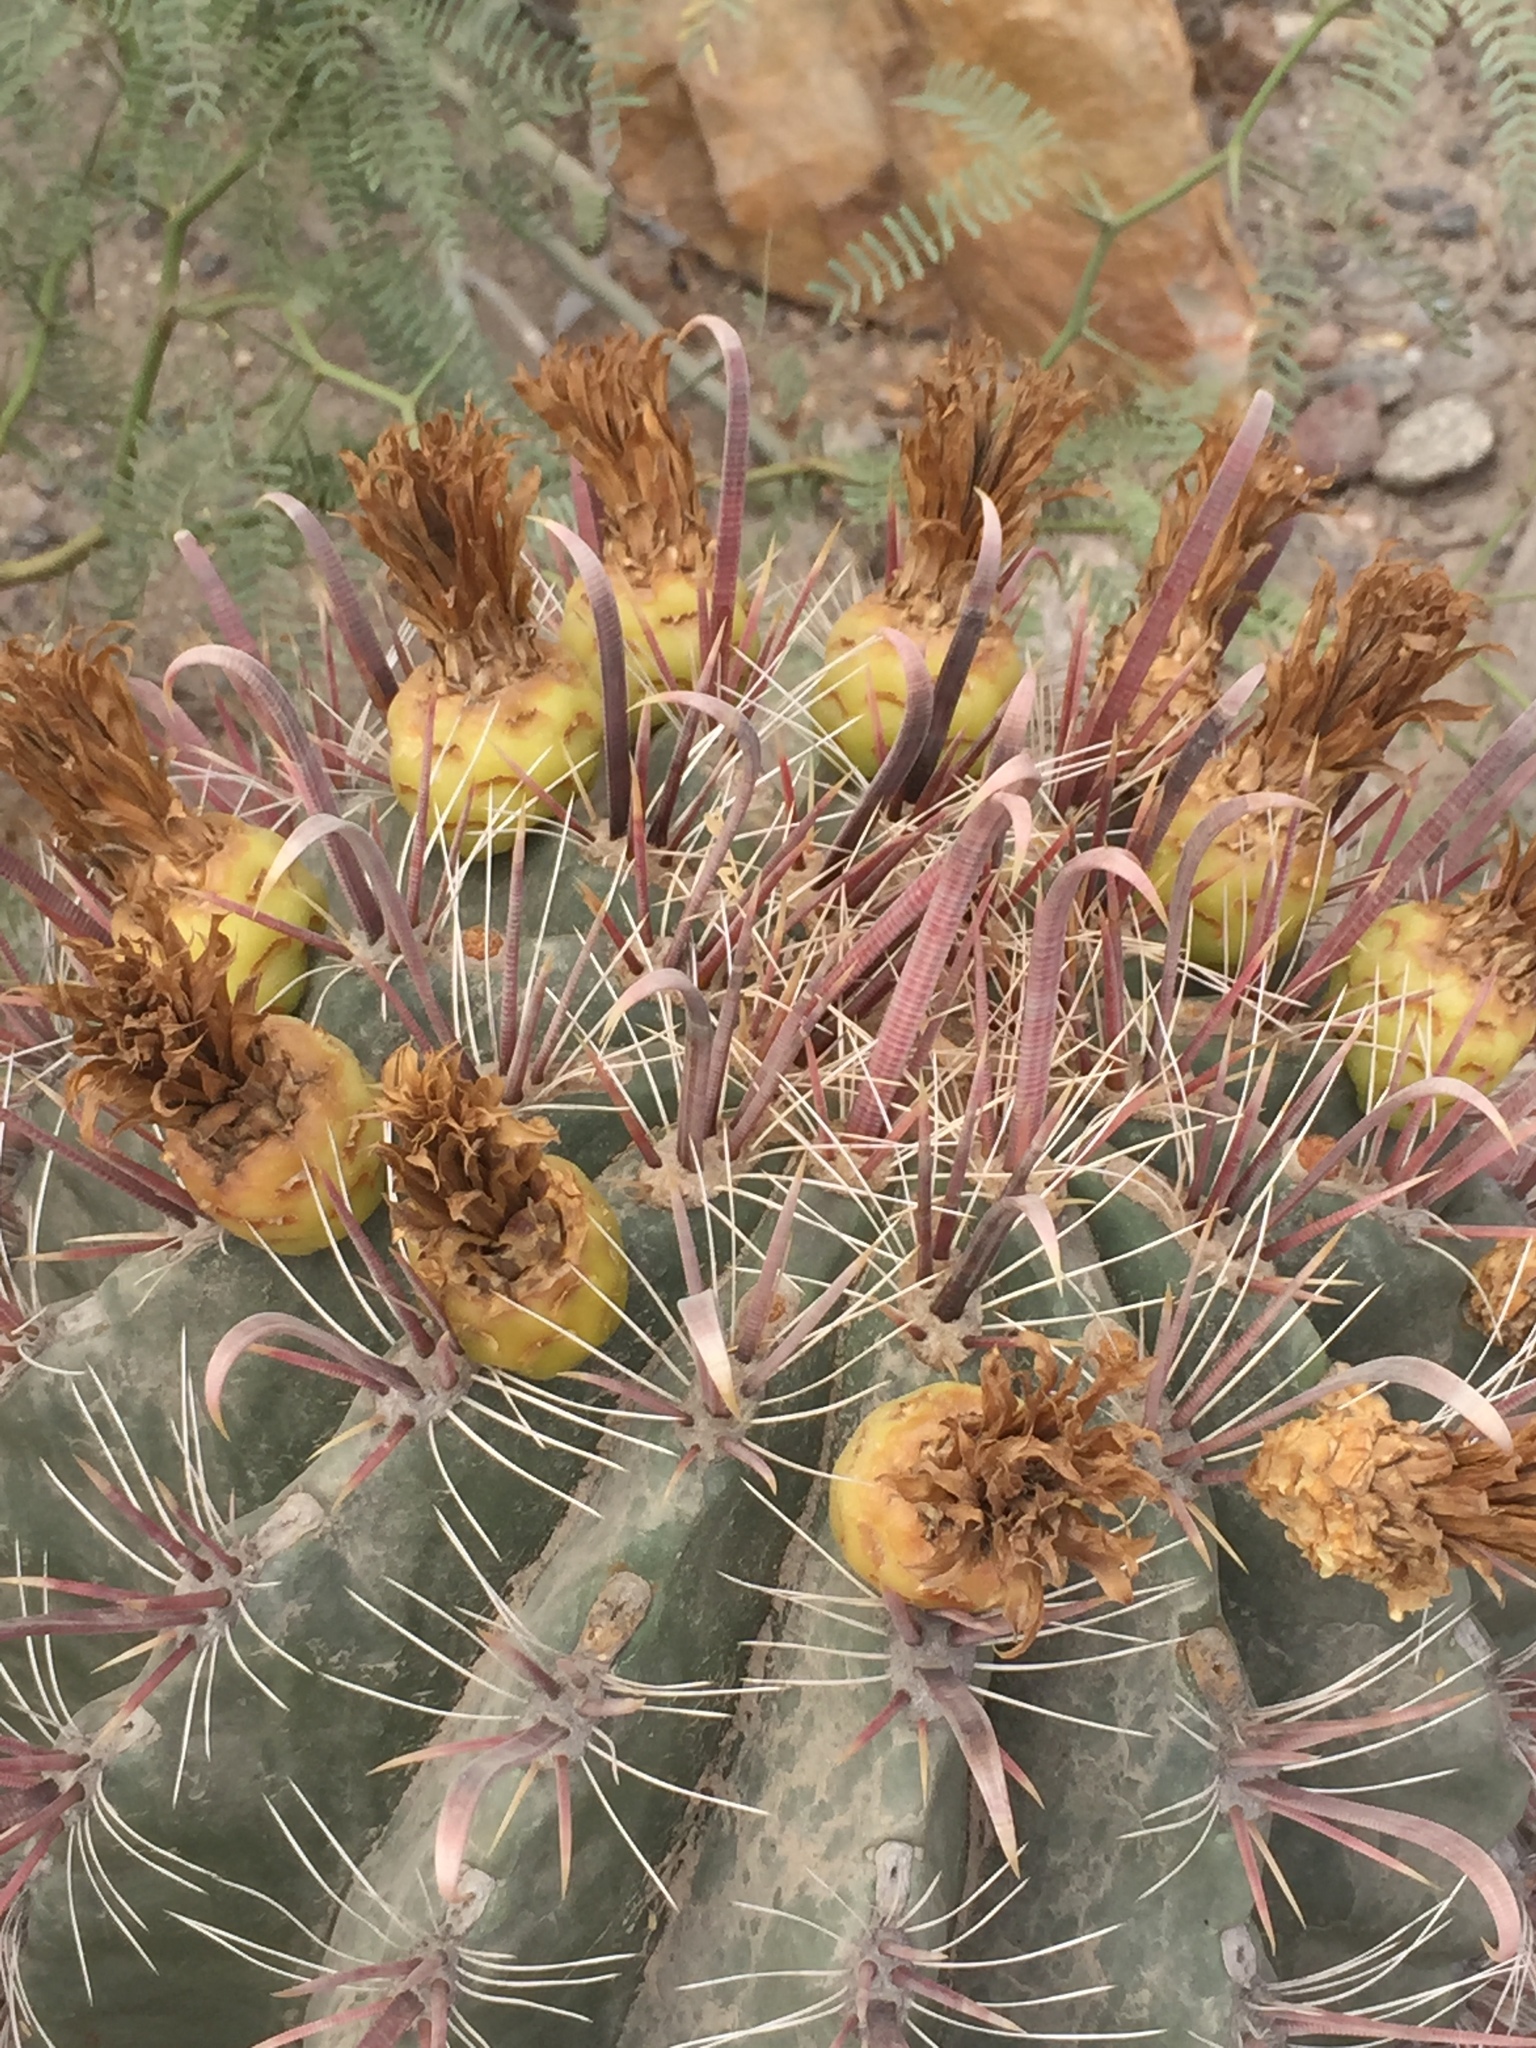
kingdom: Plantae
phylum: Tracheophyta
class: Magnoliopsida
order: Caryophyllales
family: Cactaceae
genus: Ferocactus
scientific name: Ferocactus peninsulae
